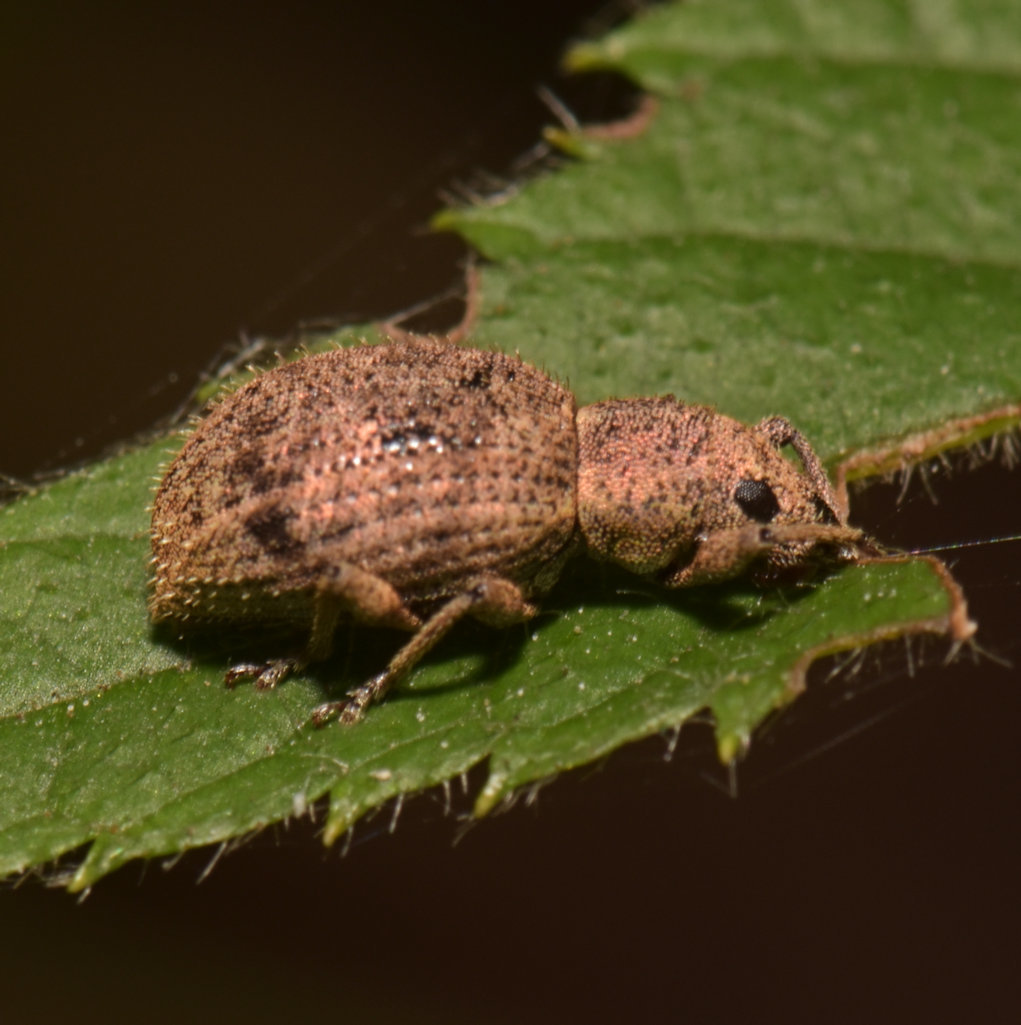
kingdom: Animalia
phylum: Arthropoda
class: Insecta
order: Coleoptera
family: Curculionidae
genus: Sciaphilus
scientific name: Sciaphilus asperatus
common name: Weevil
